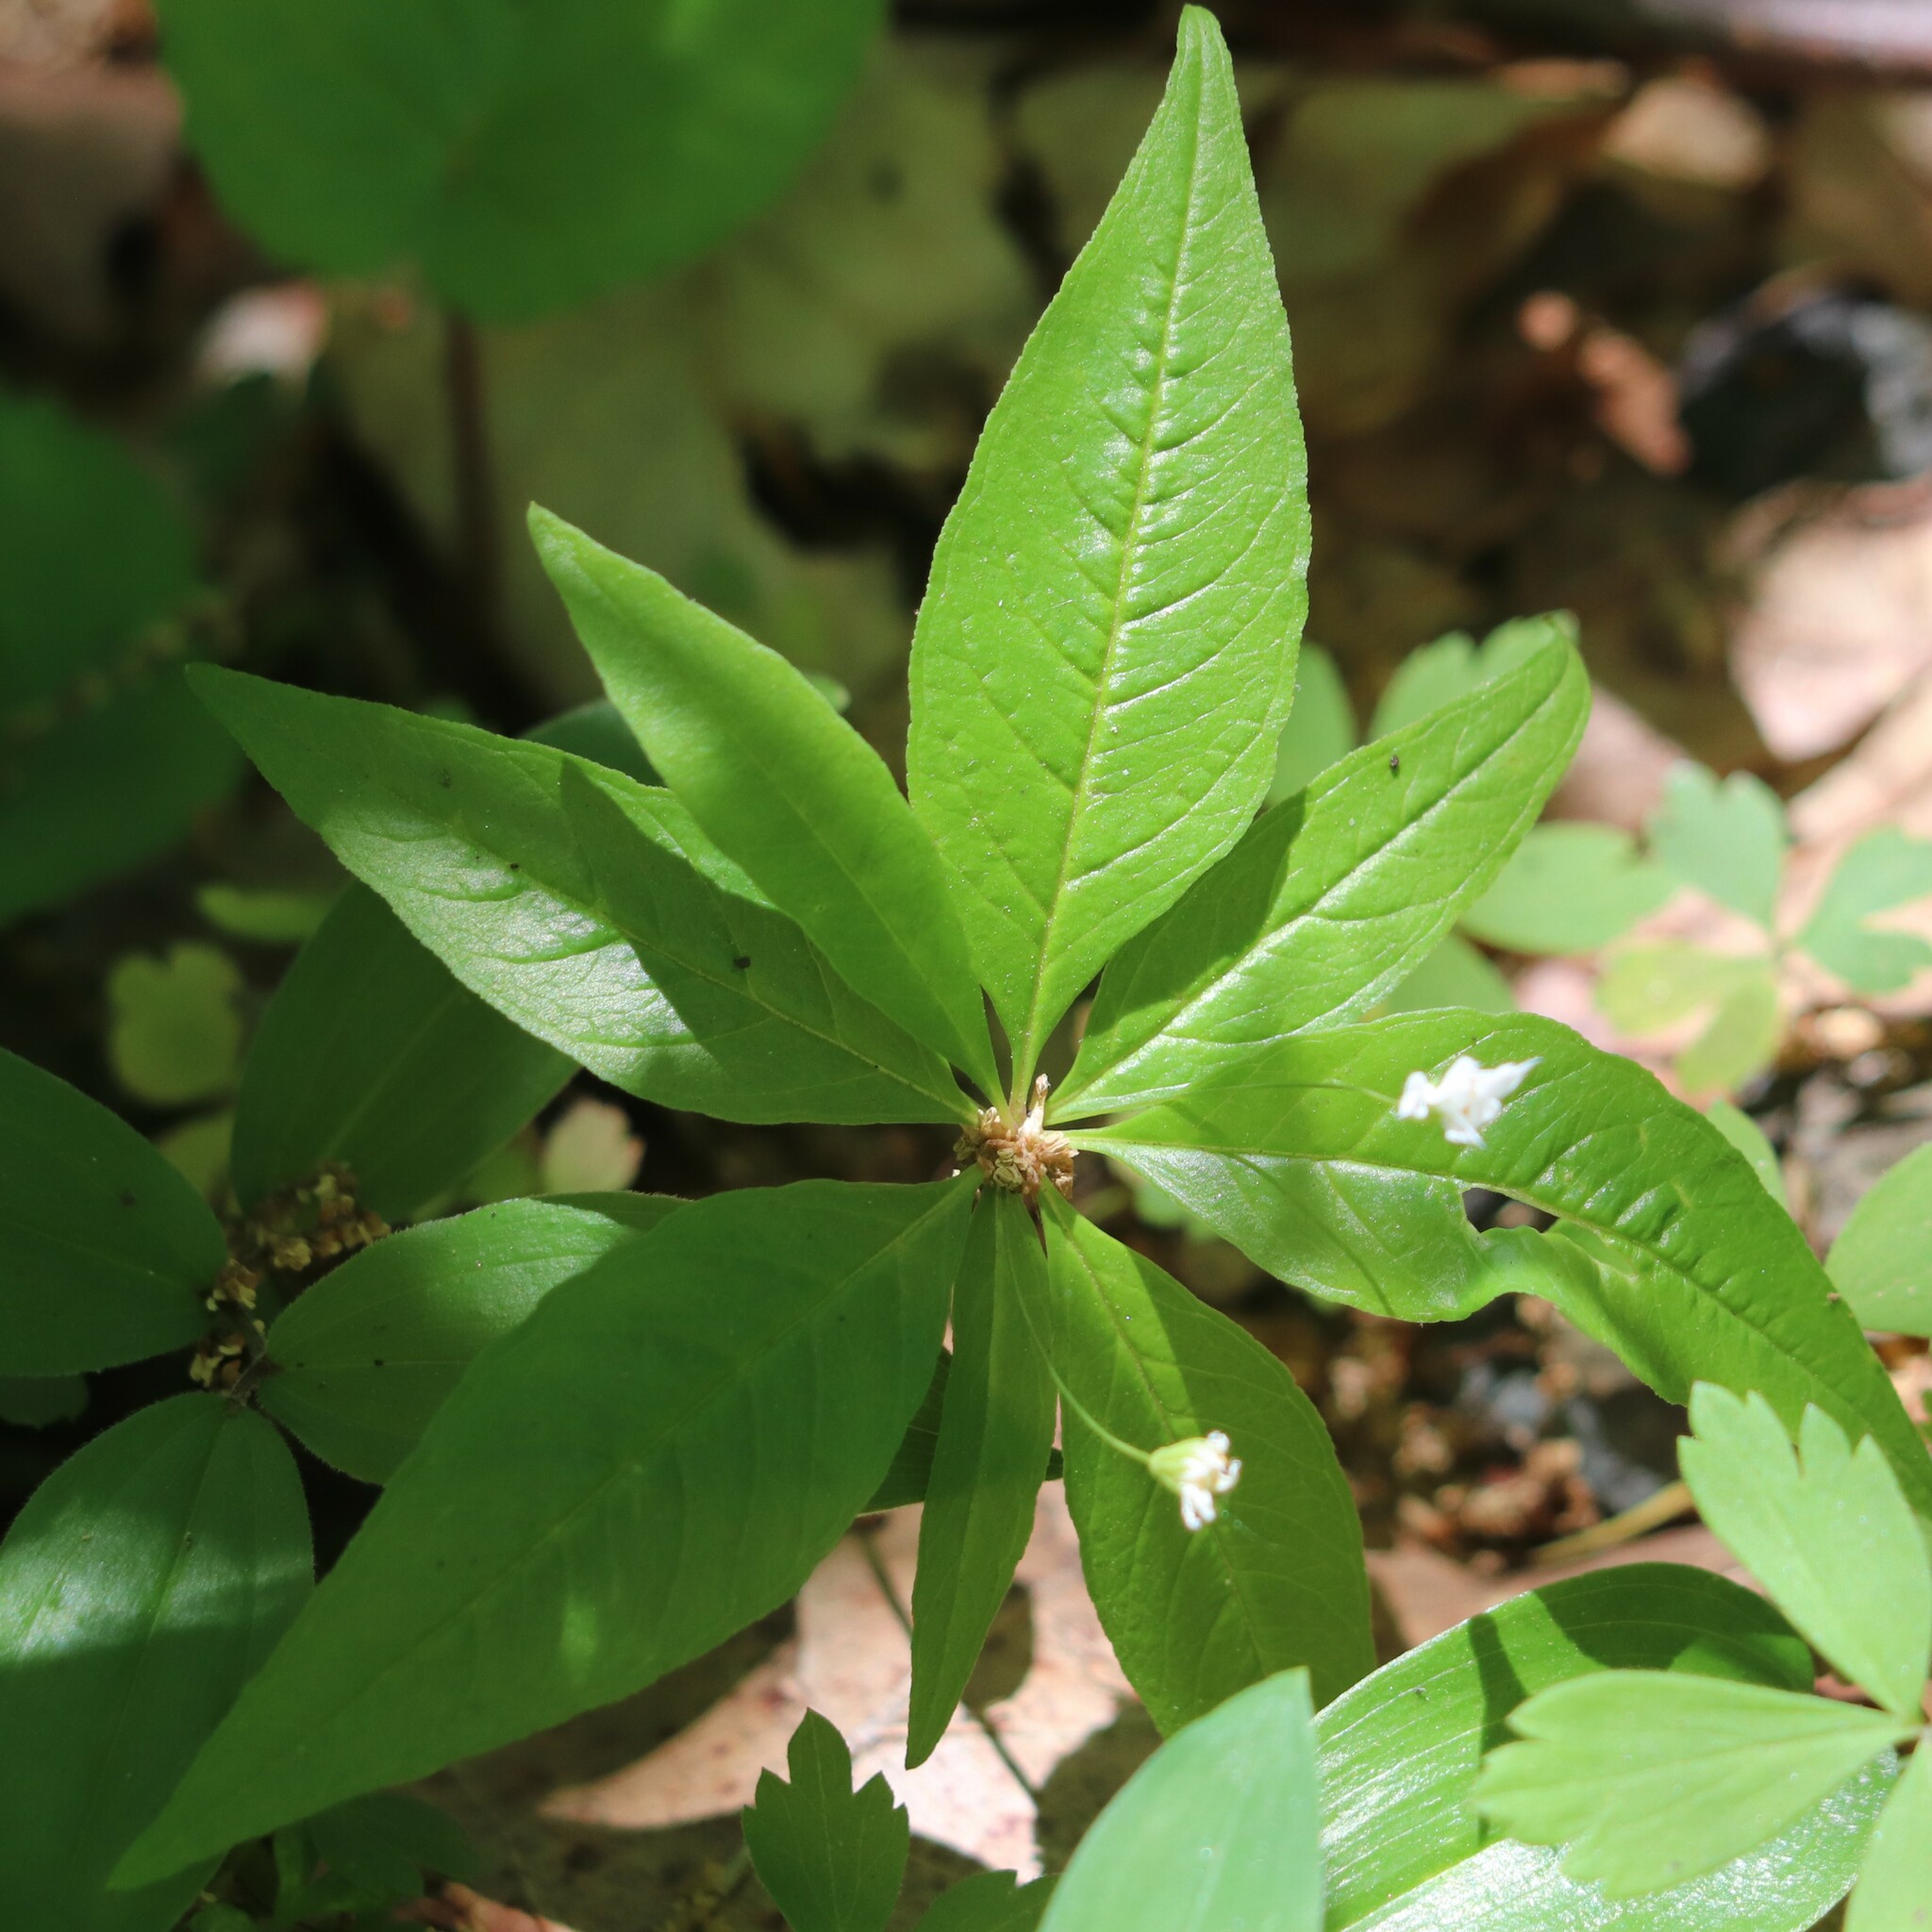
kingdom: Plantae
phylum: Tracheophyta
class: Magnoliopsida
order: Ericales
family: Primulaceae
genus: Lysimachia
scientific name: Lysimachia borealis
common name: American starflower
